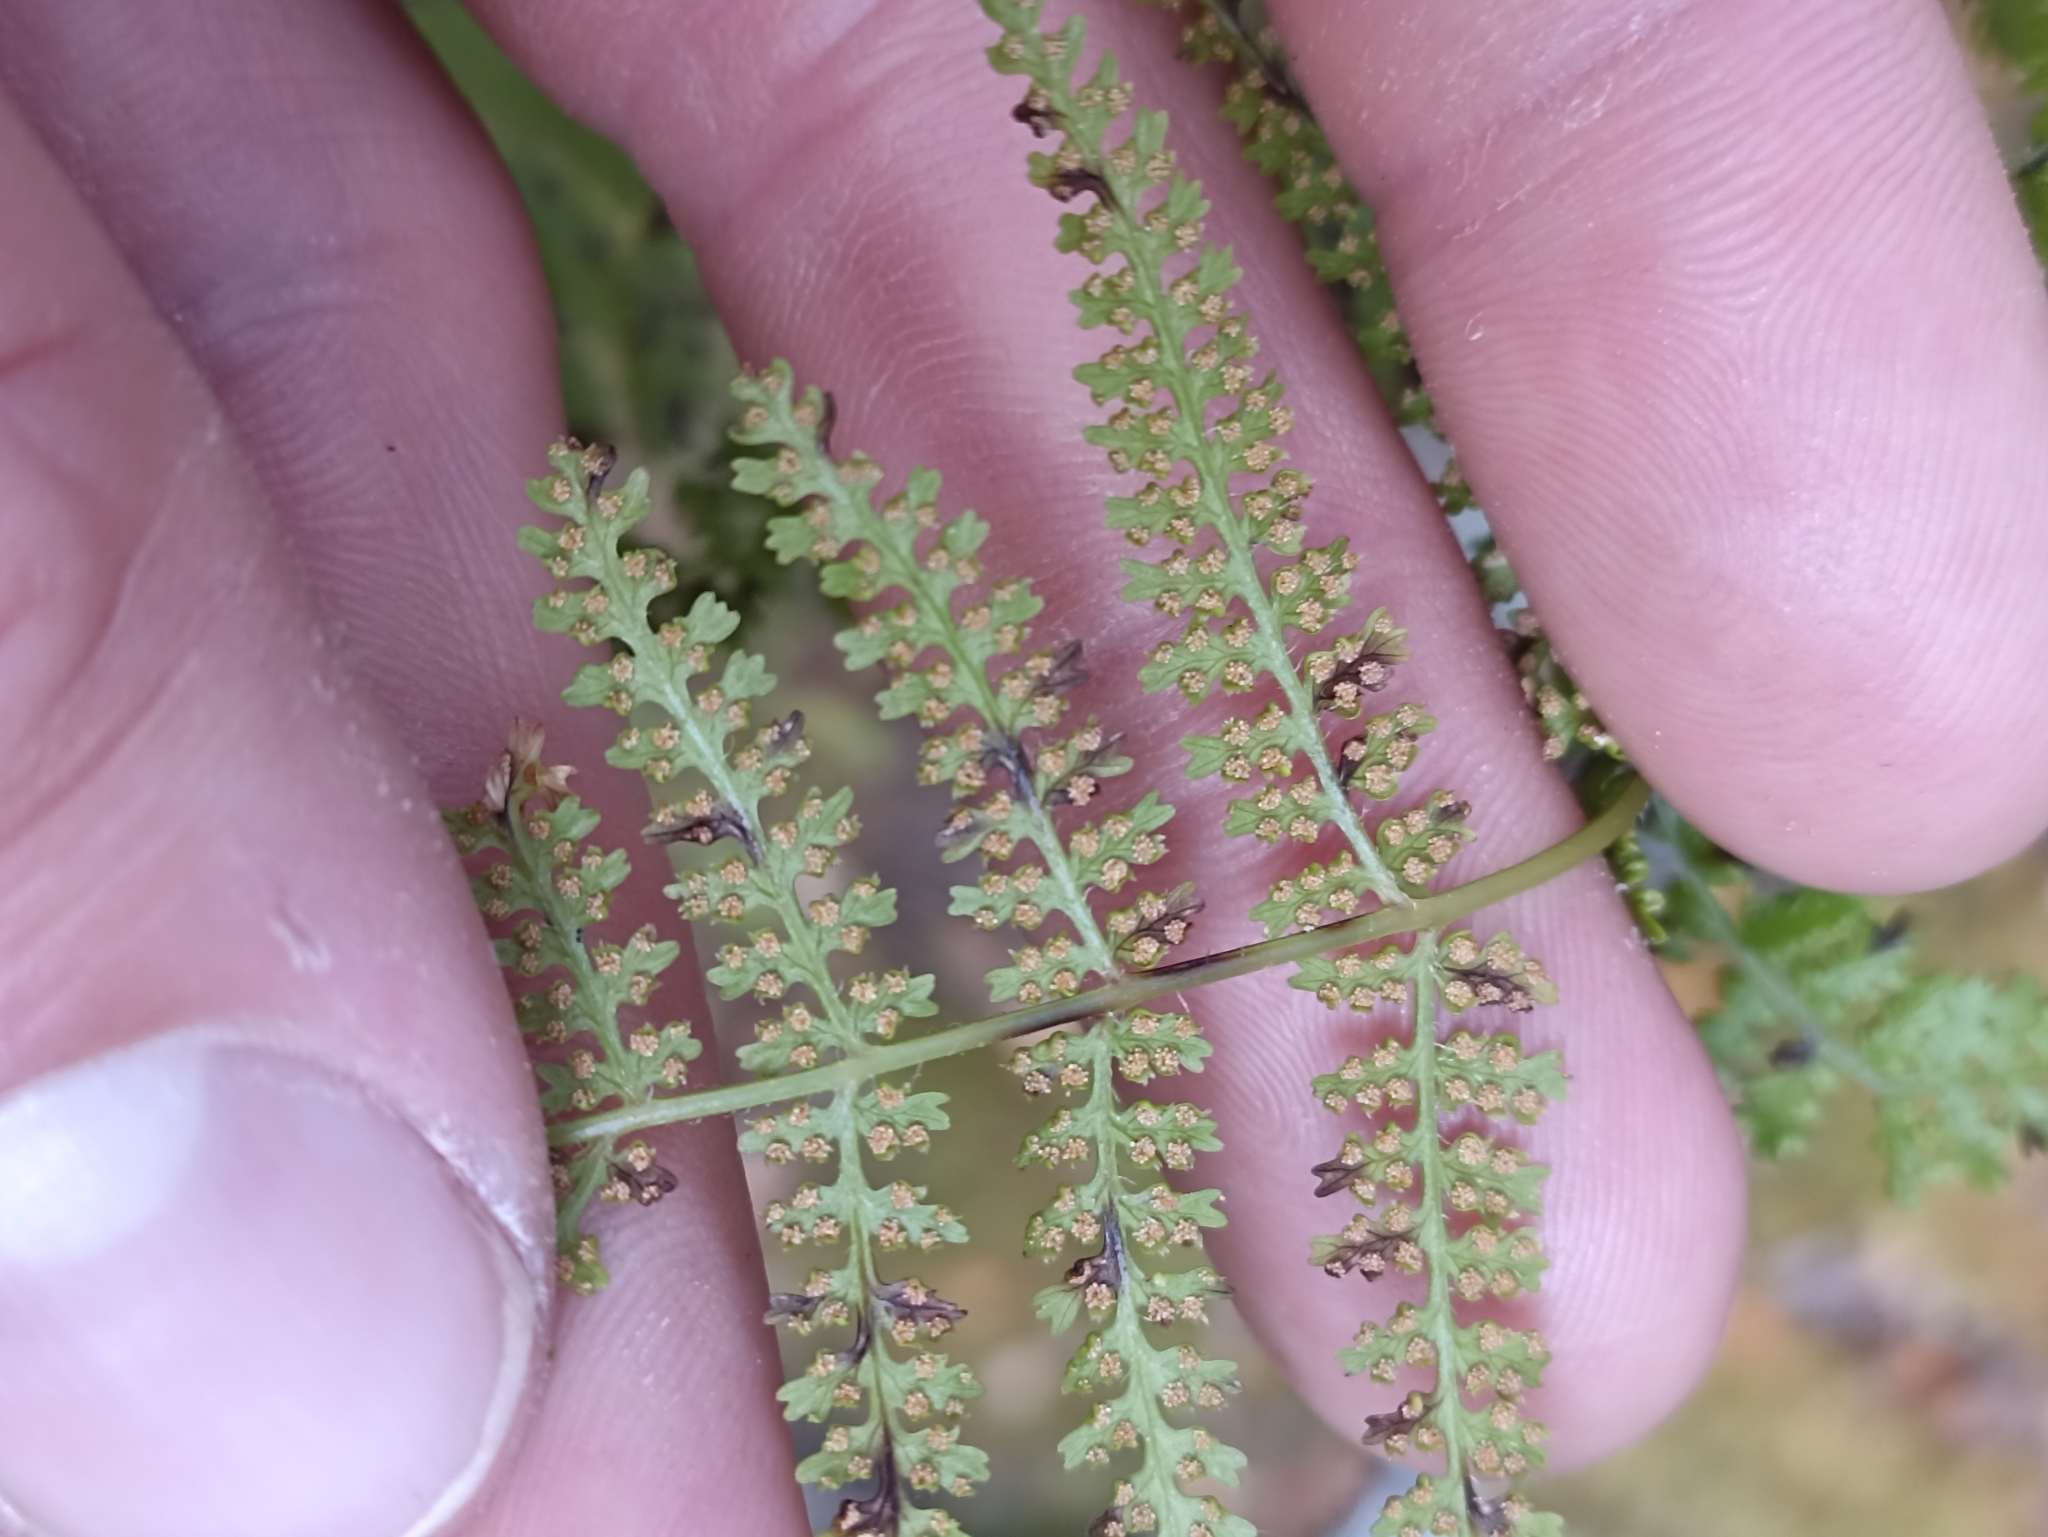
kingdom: Plantae
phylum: Tracheophyta
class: Polypodiopsida
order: Polypodiales
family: Dennstaedtiaceae
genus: Hypolepis
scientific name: Hypolepis millefolium
